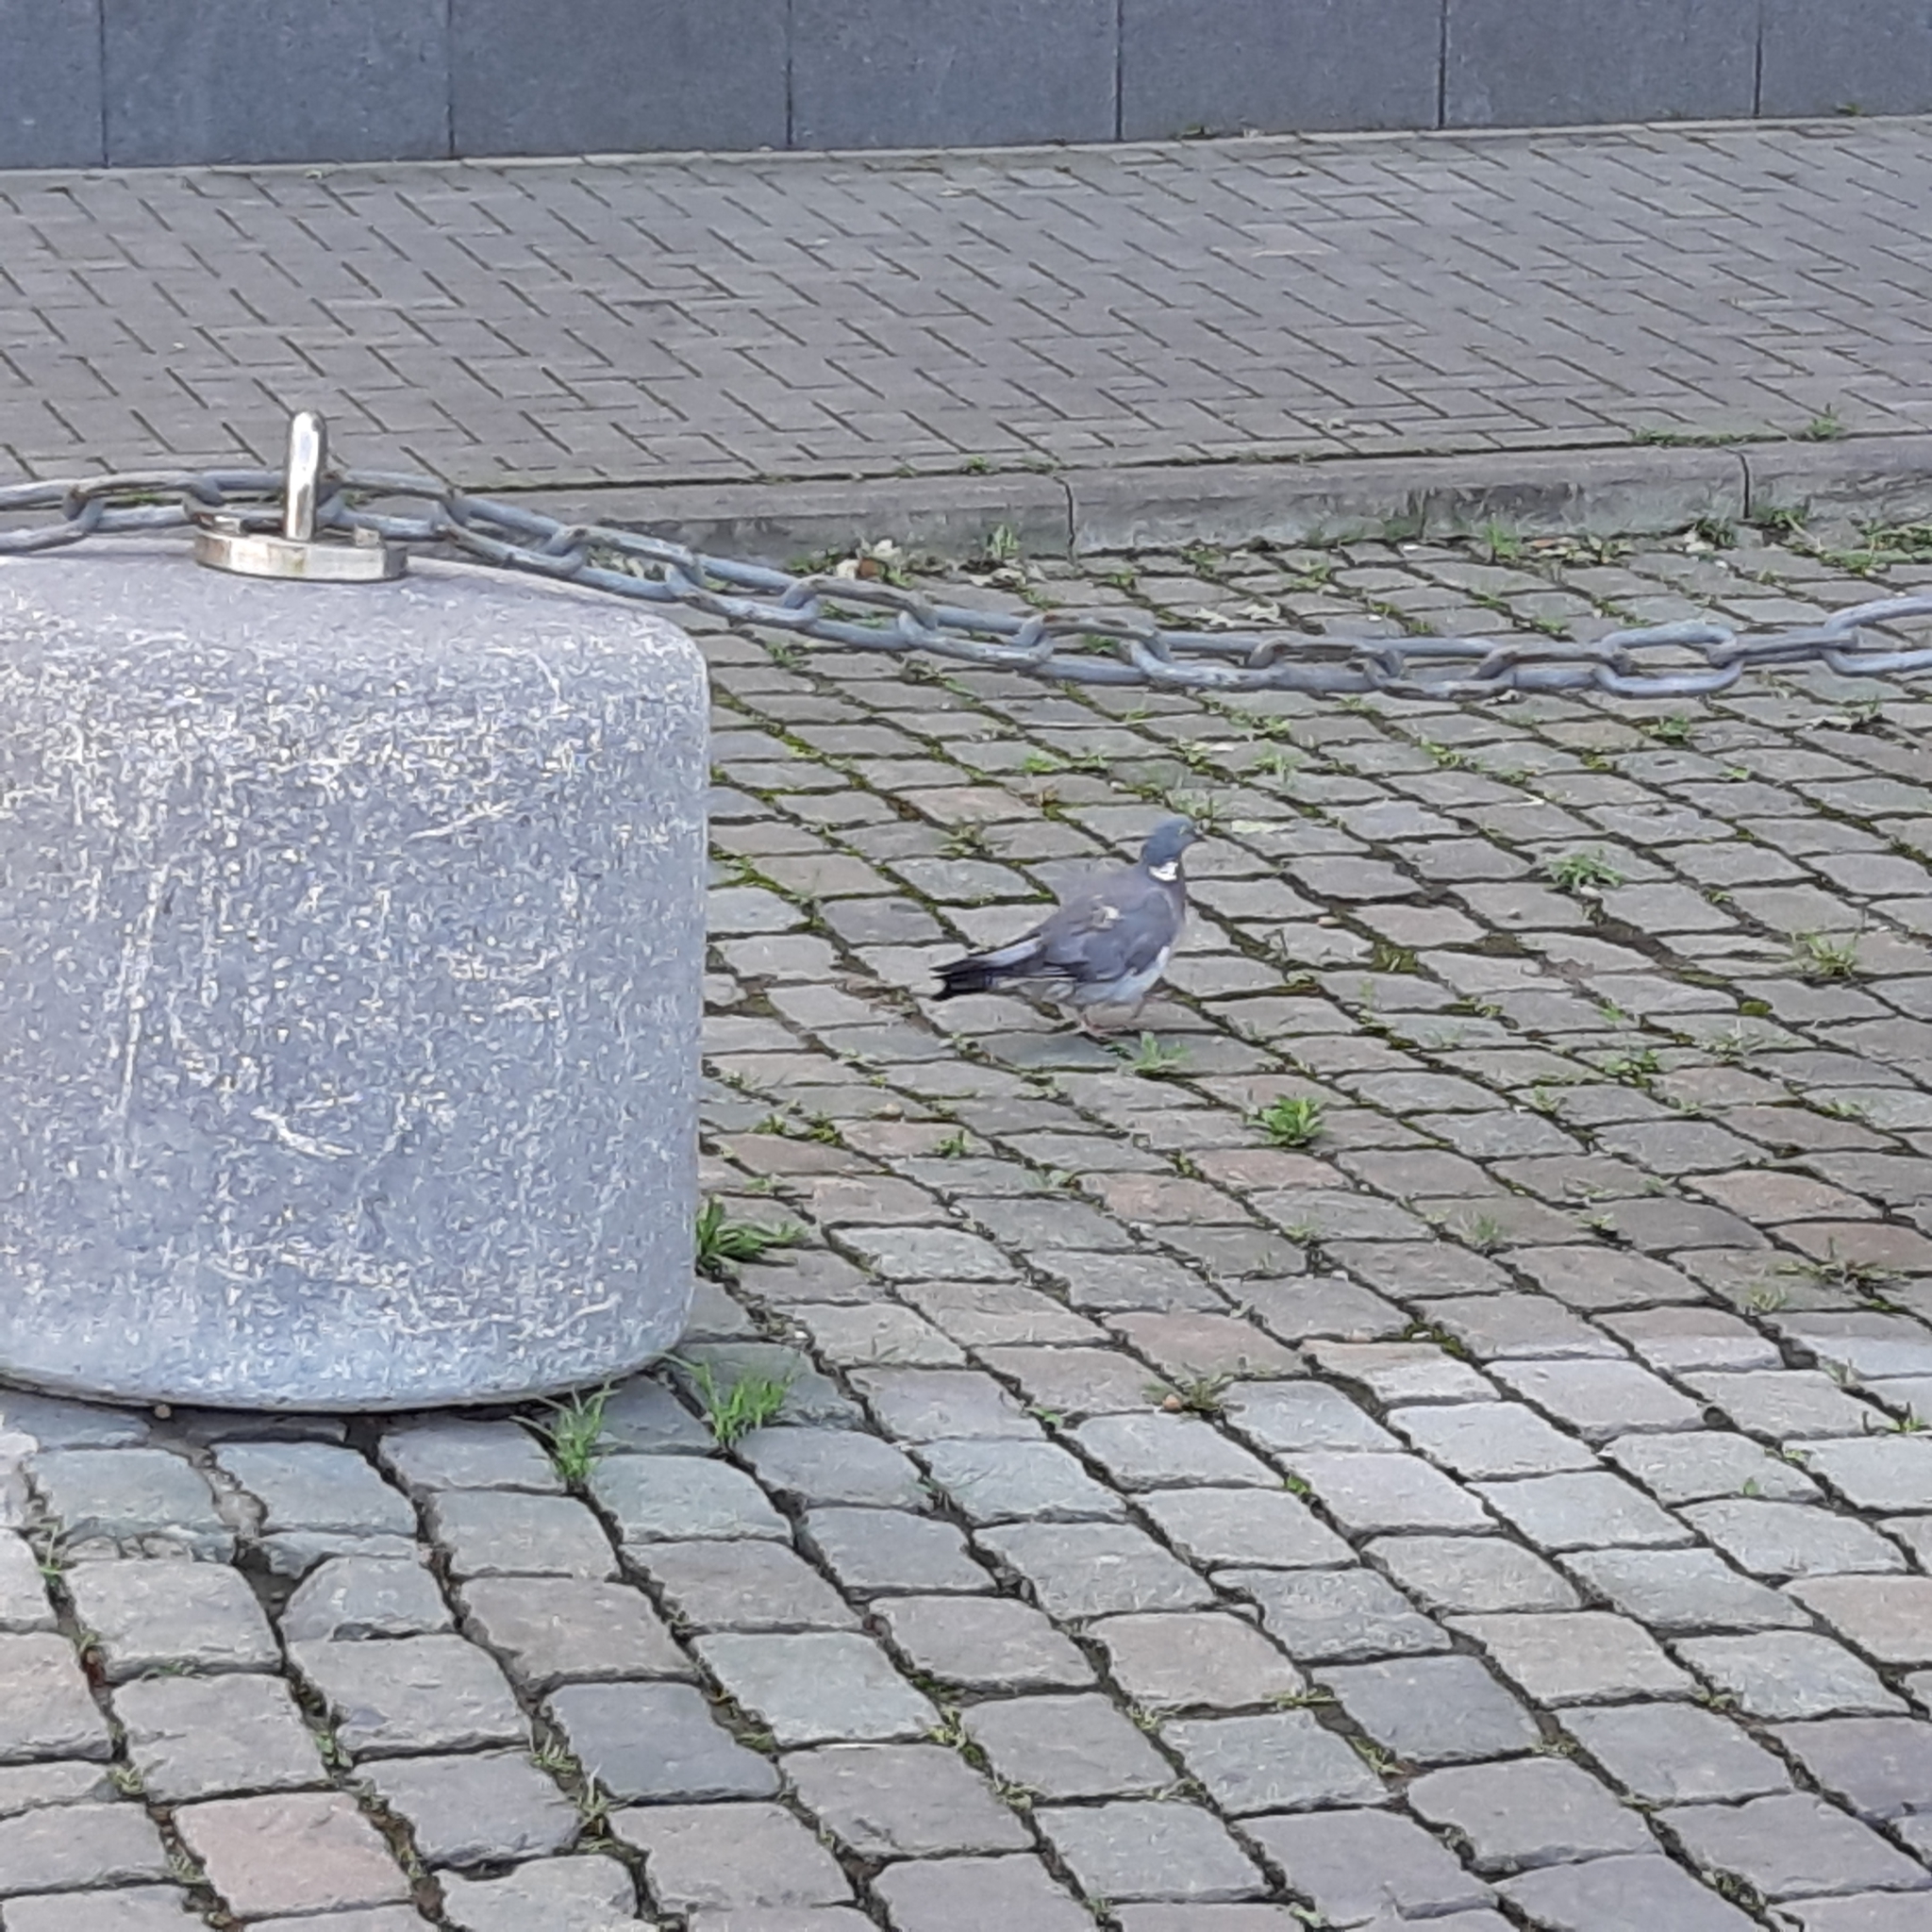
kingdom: Animalia
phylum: Chordata
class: Aves
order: Columbiformes
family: Columbidae
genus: Columba
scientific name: Columba palumbus
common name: Common wood pigeon
